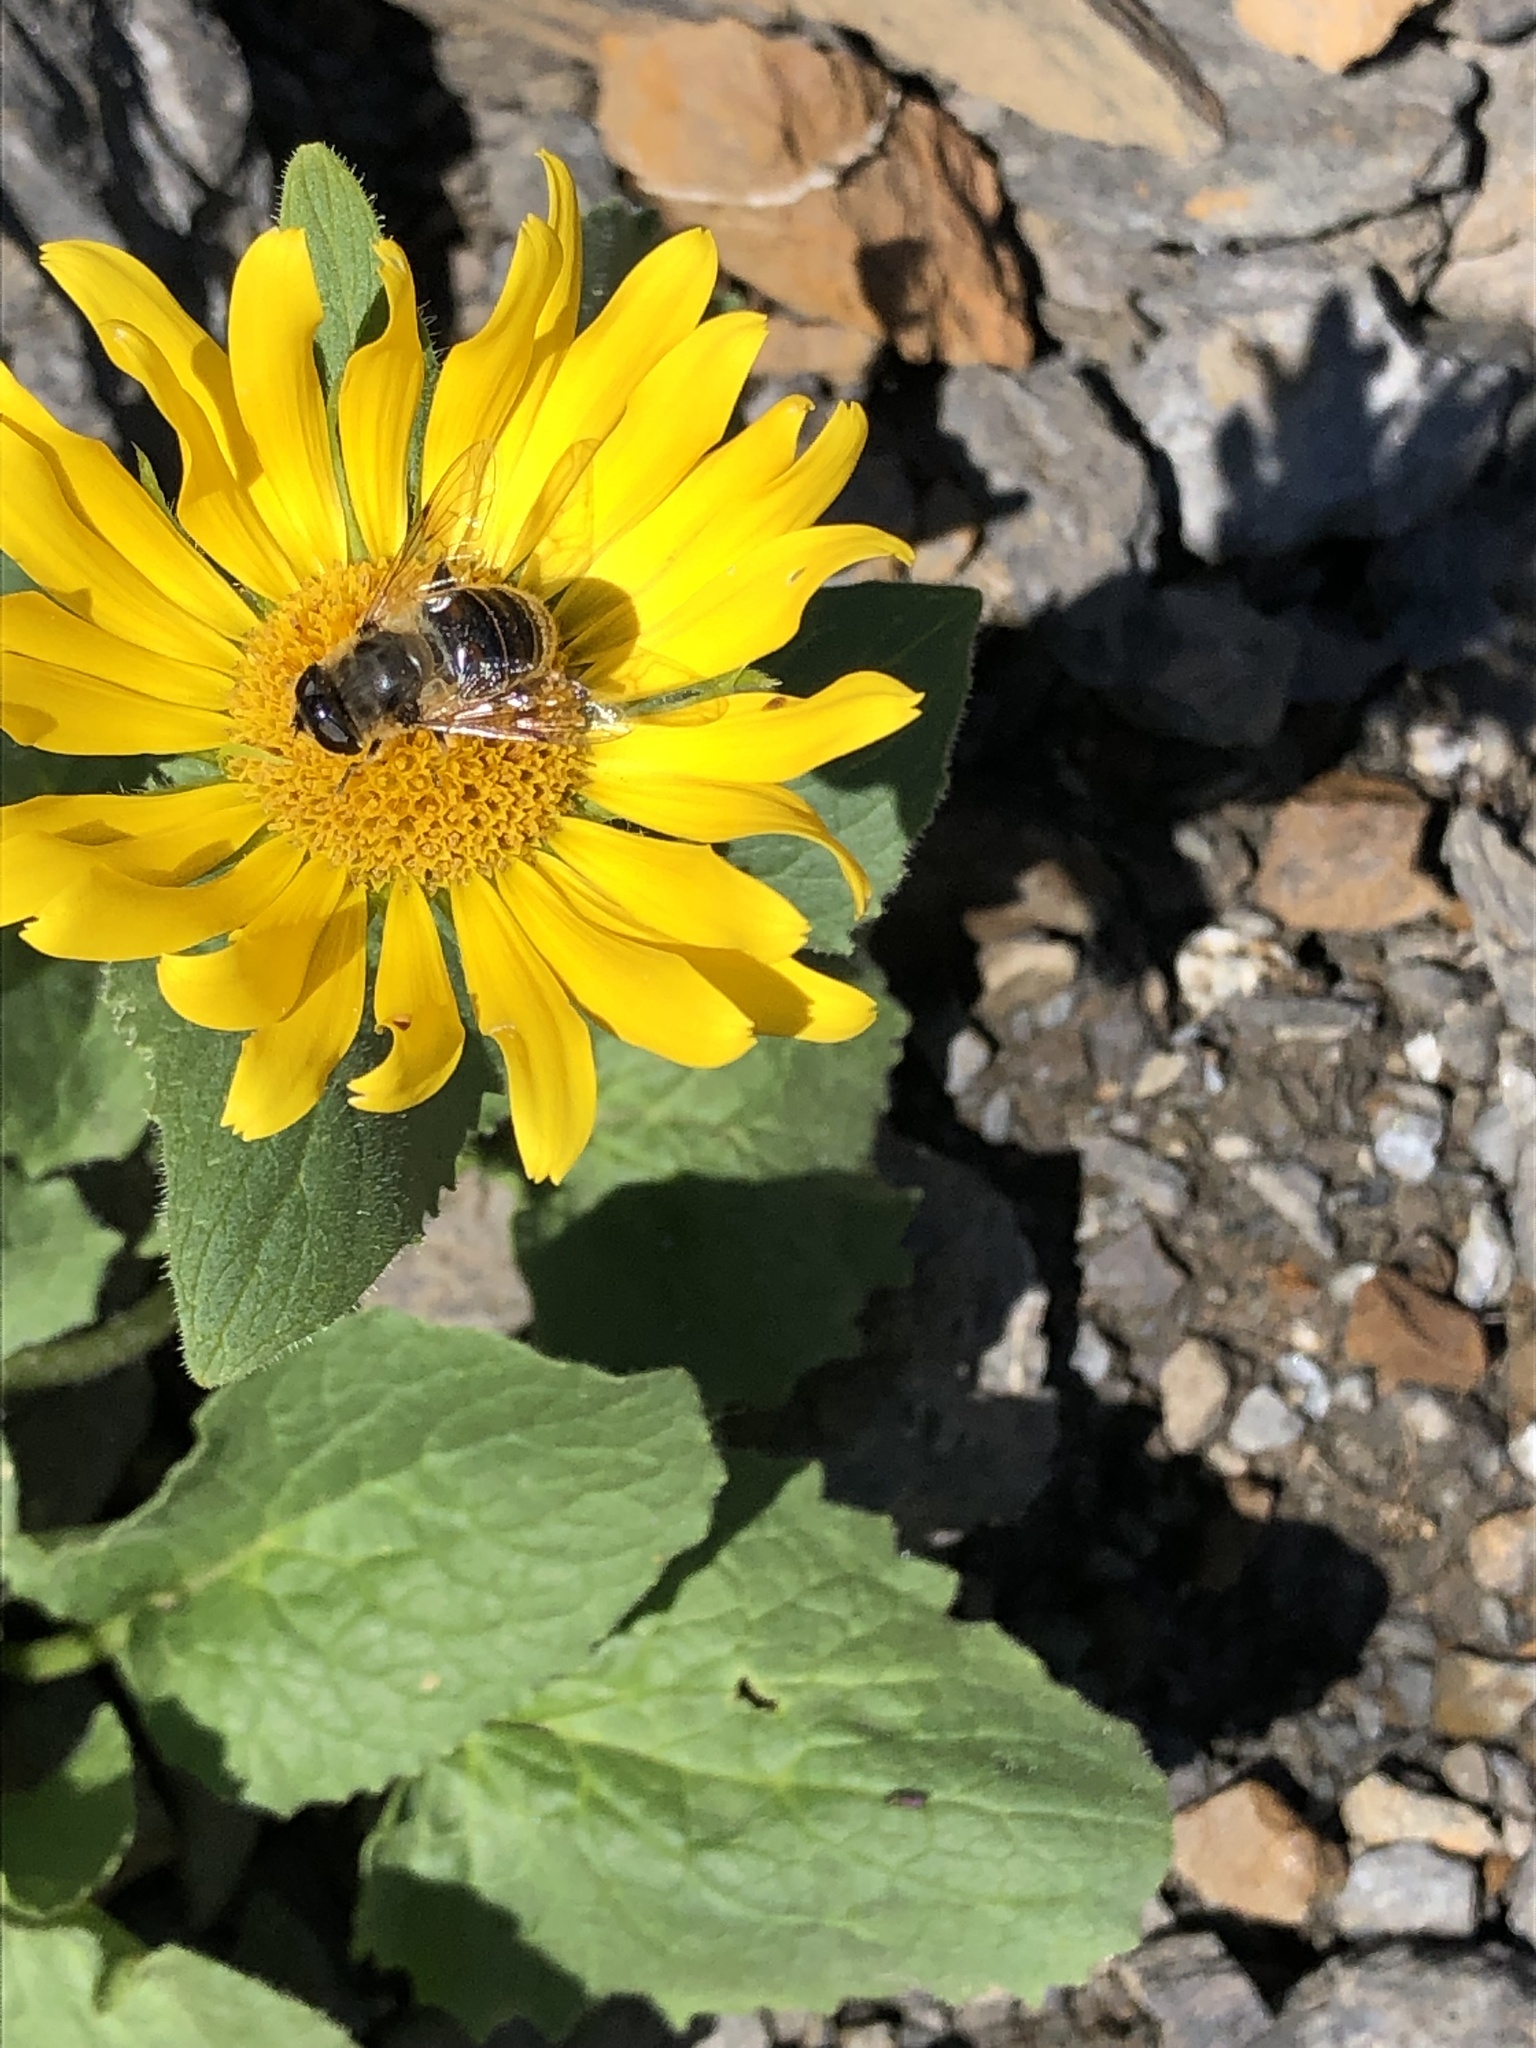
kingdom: Animalia
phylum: Arthropoda
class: Insecta
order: Diptera
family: Syrphidae
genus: Eristalis
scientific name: Eristalis tenax
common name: Drone fly
